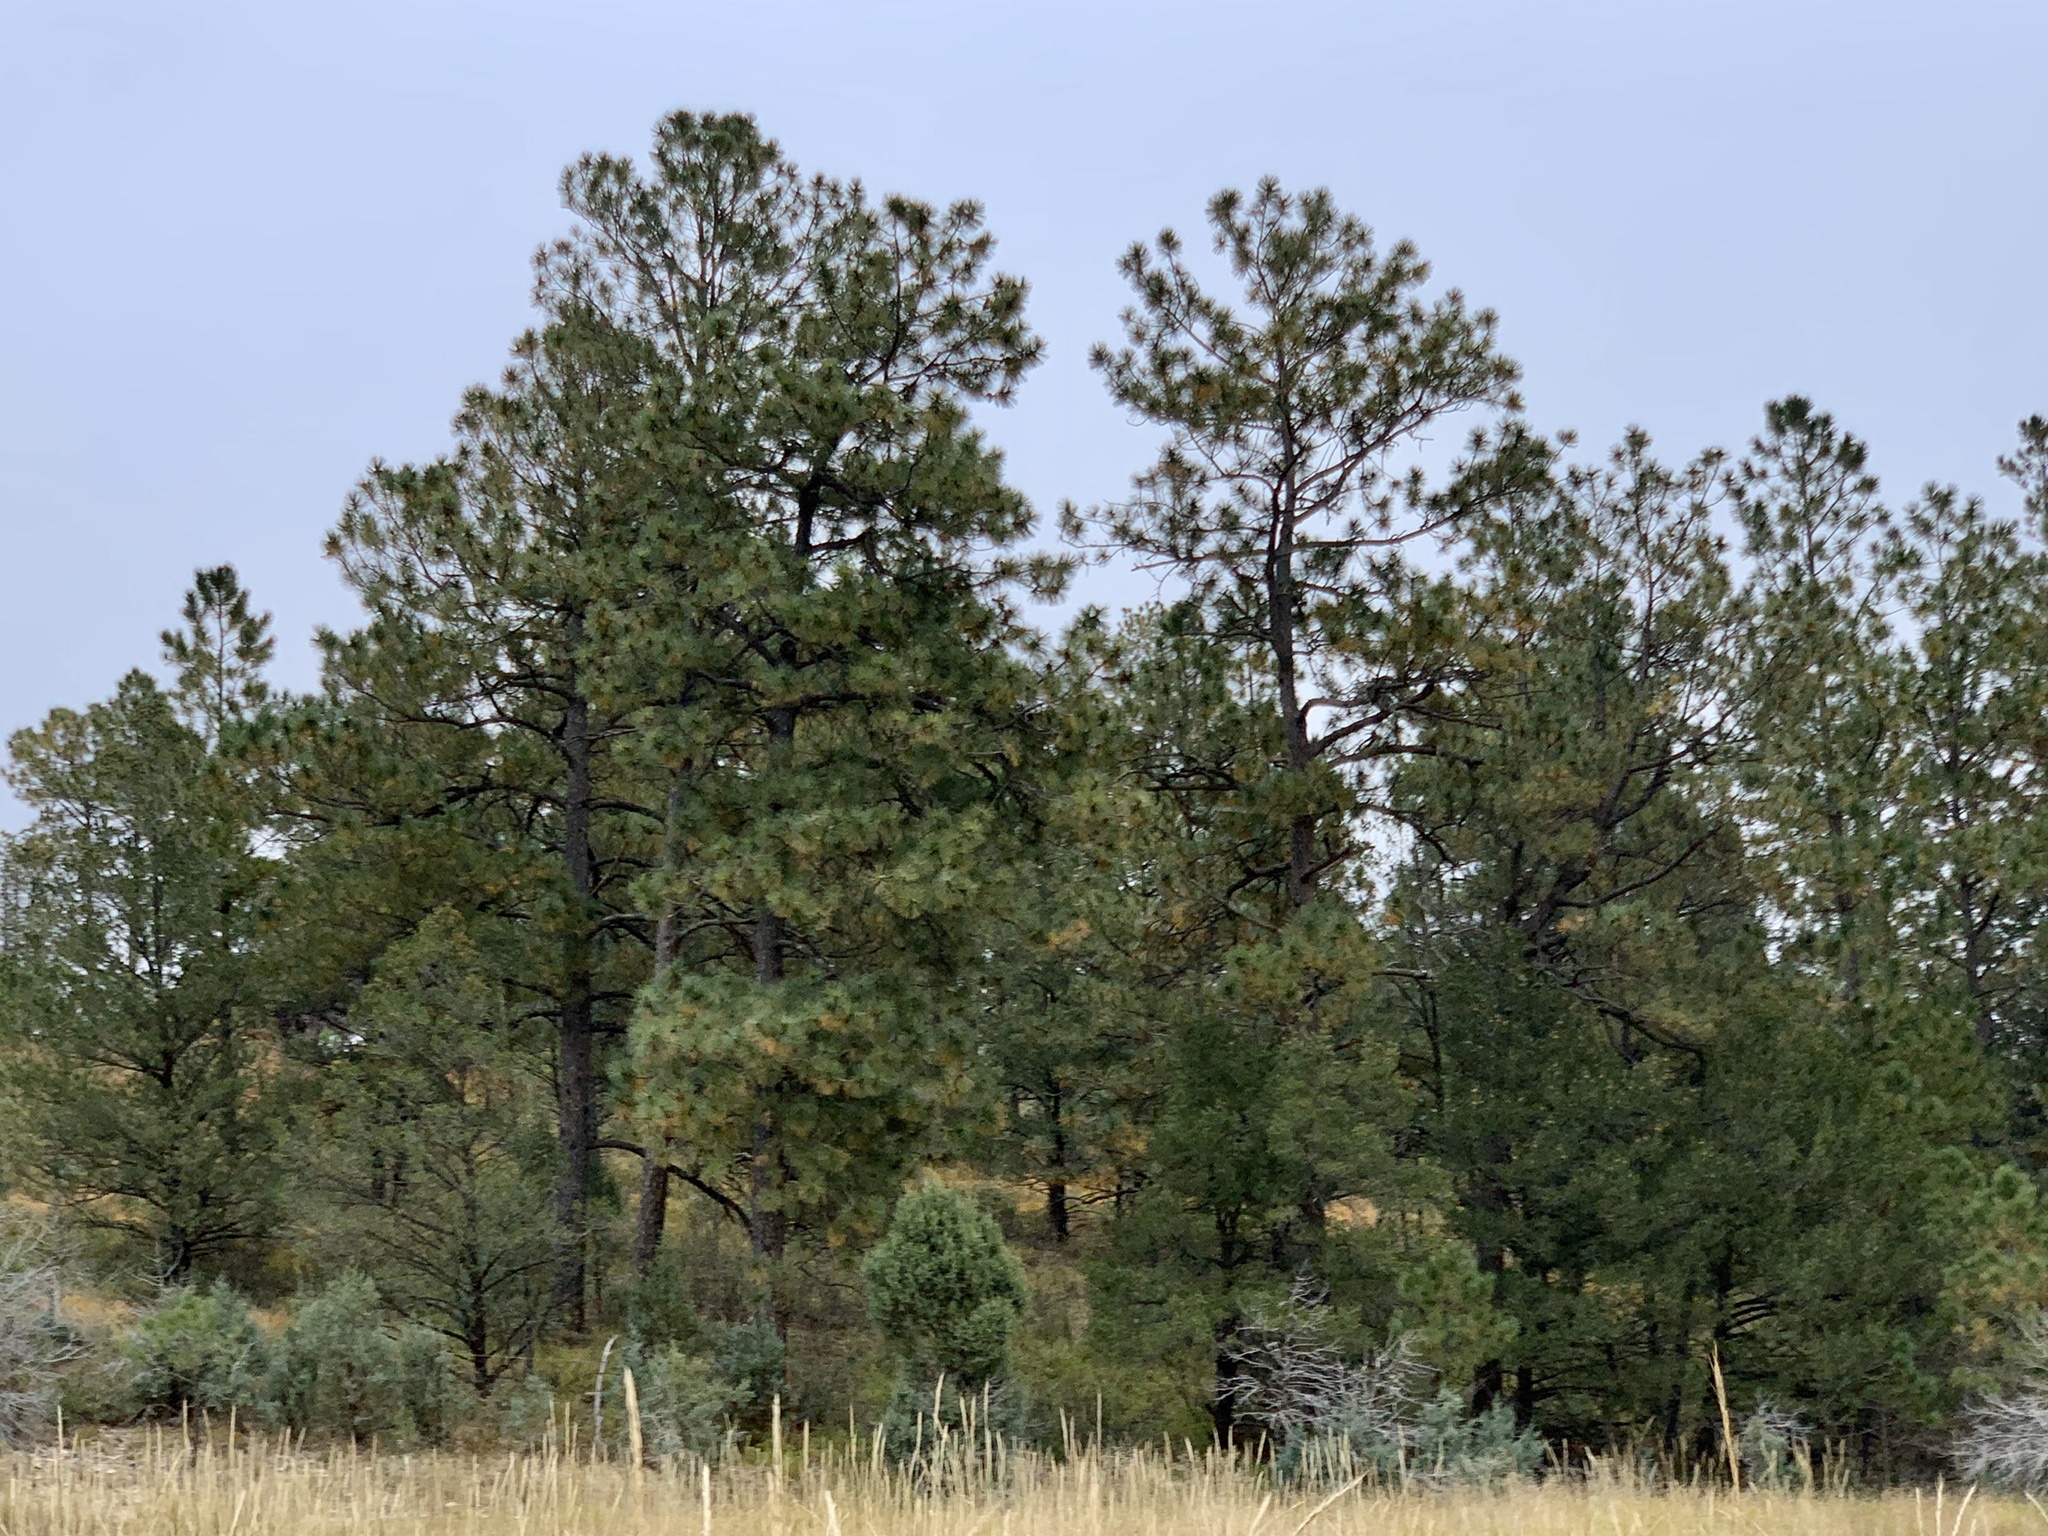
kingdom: Plantae
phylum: Tracheophyta
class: Pinopsida
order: Pinales
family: Pinaceae
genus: Pinus
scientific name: Pinus ponderosa
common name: Western yellow-pine
